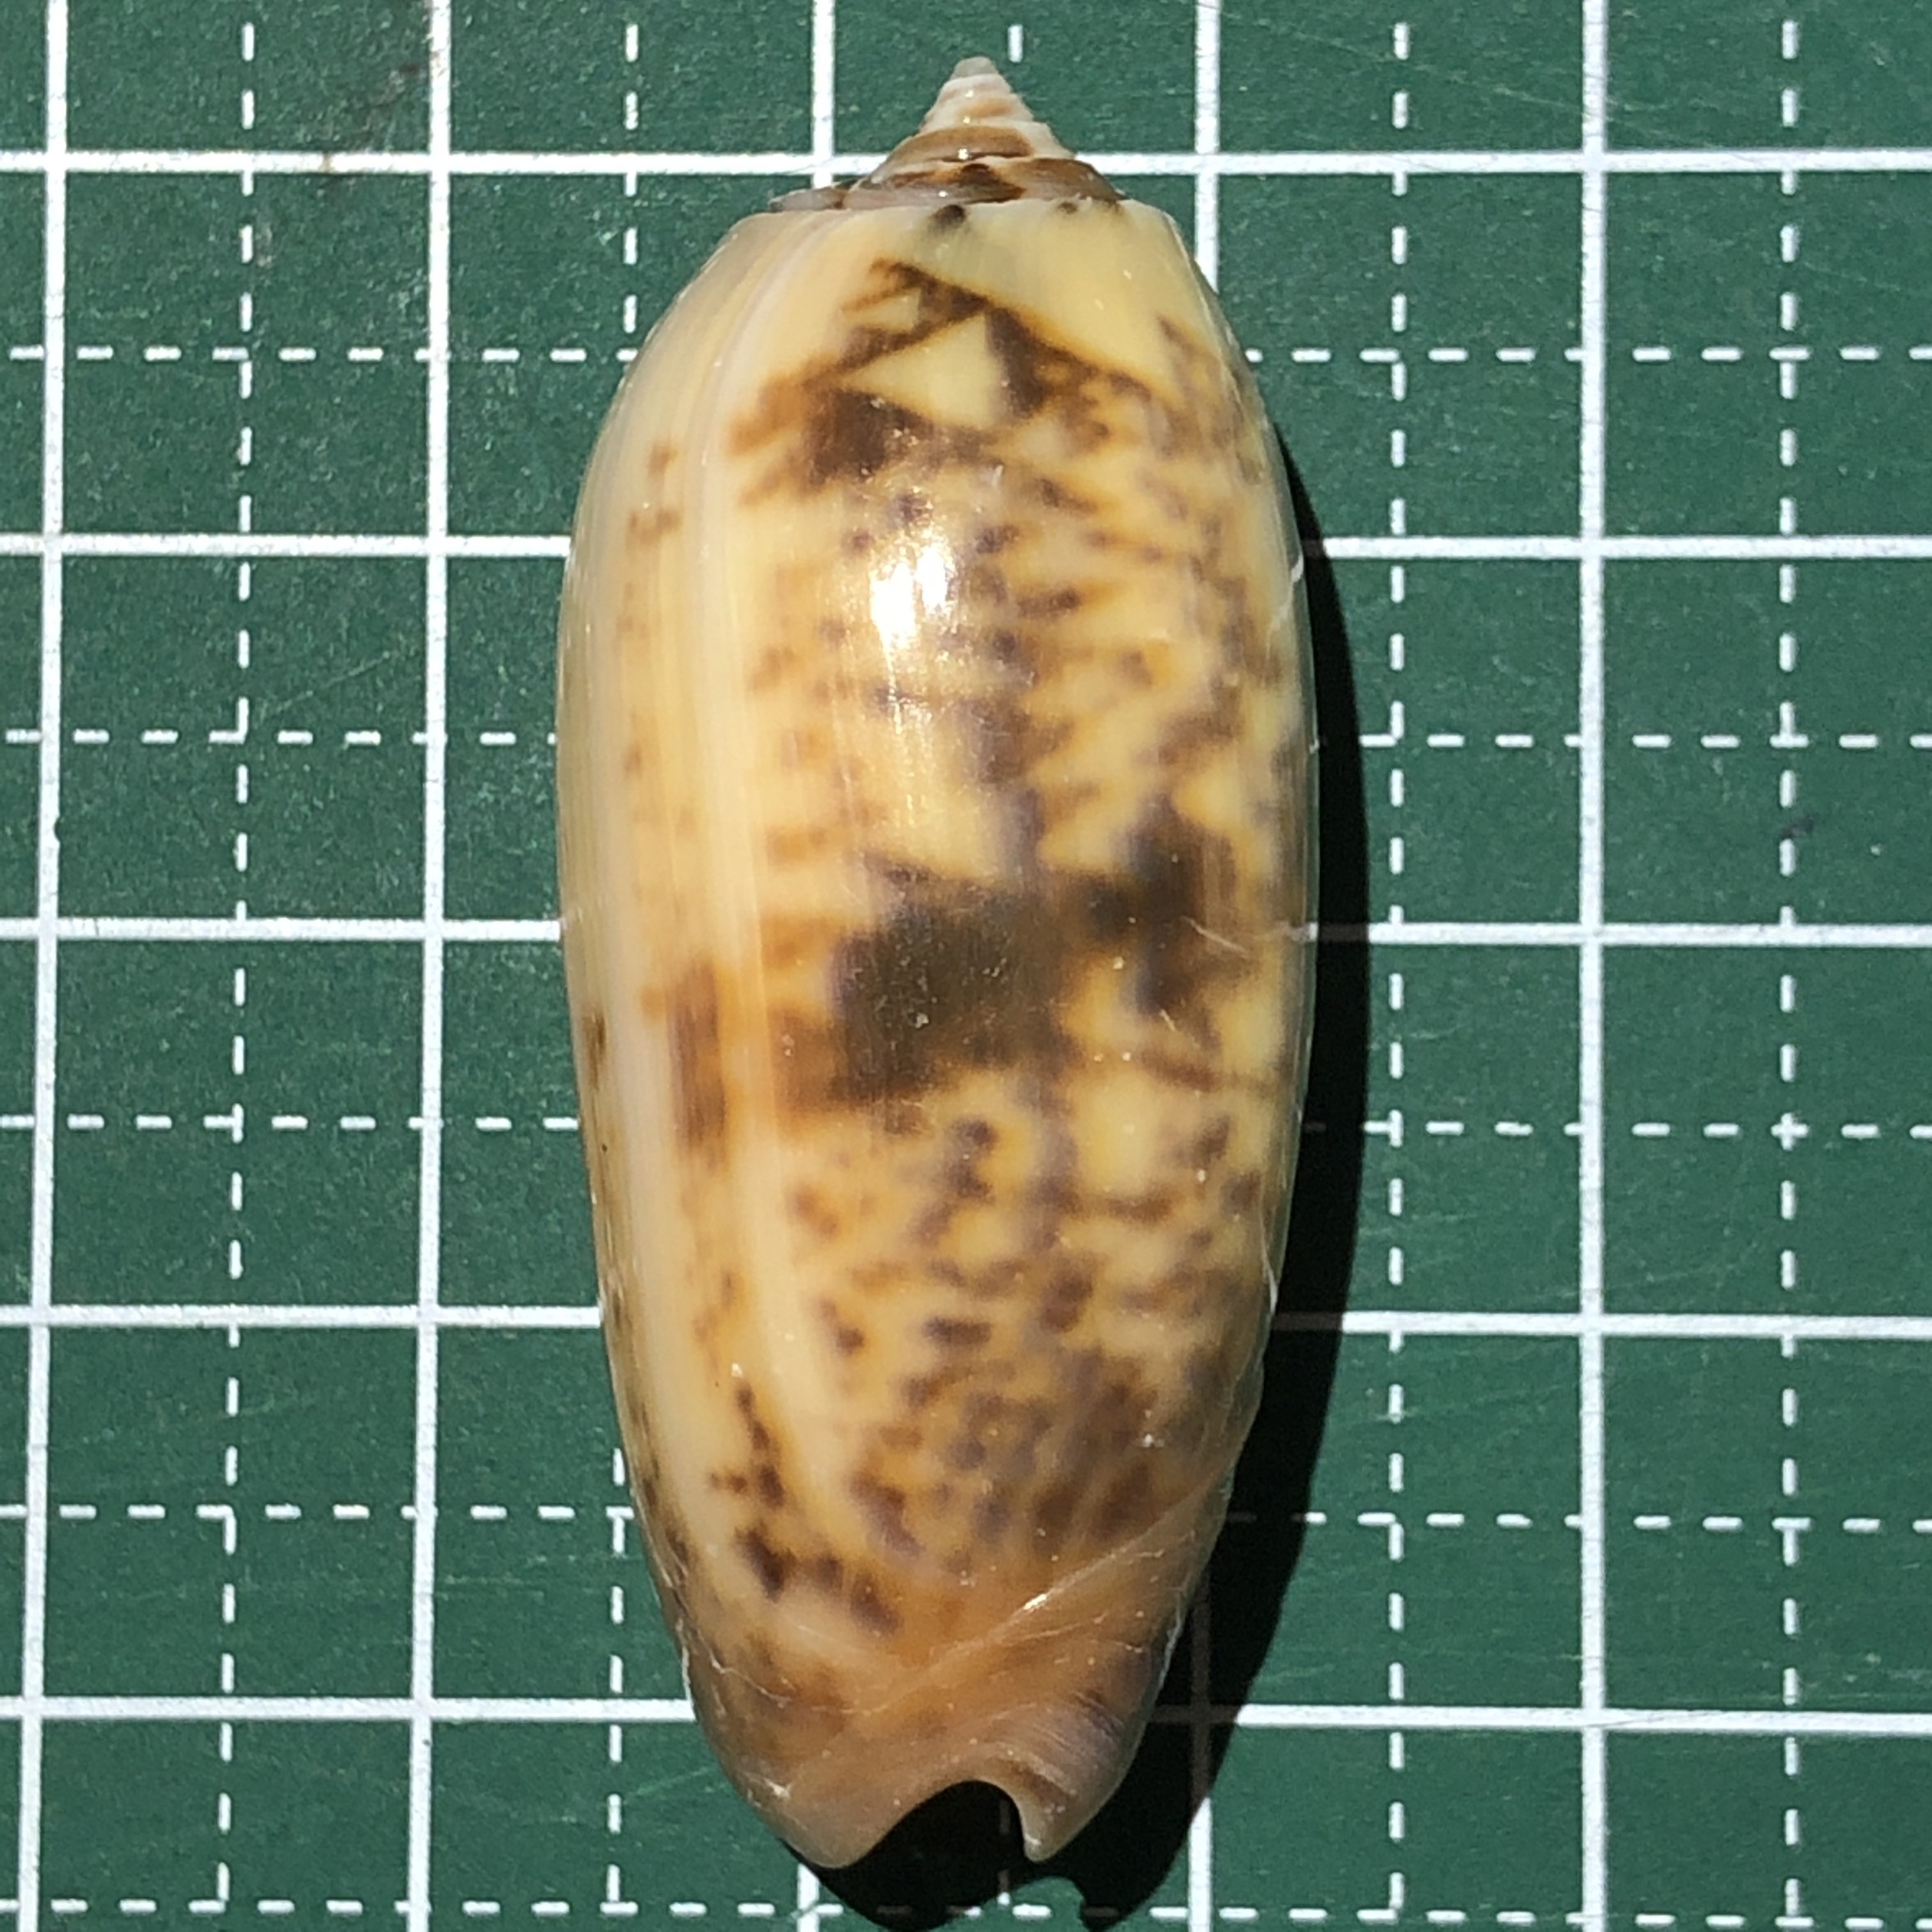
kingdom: Animalia
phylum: Mollusca
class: Gastropoda
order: Neogastropoda
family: Olividae
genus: Oliva
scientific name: Oliva miniacea
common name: Pacific common olive
